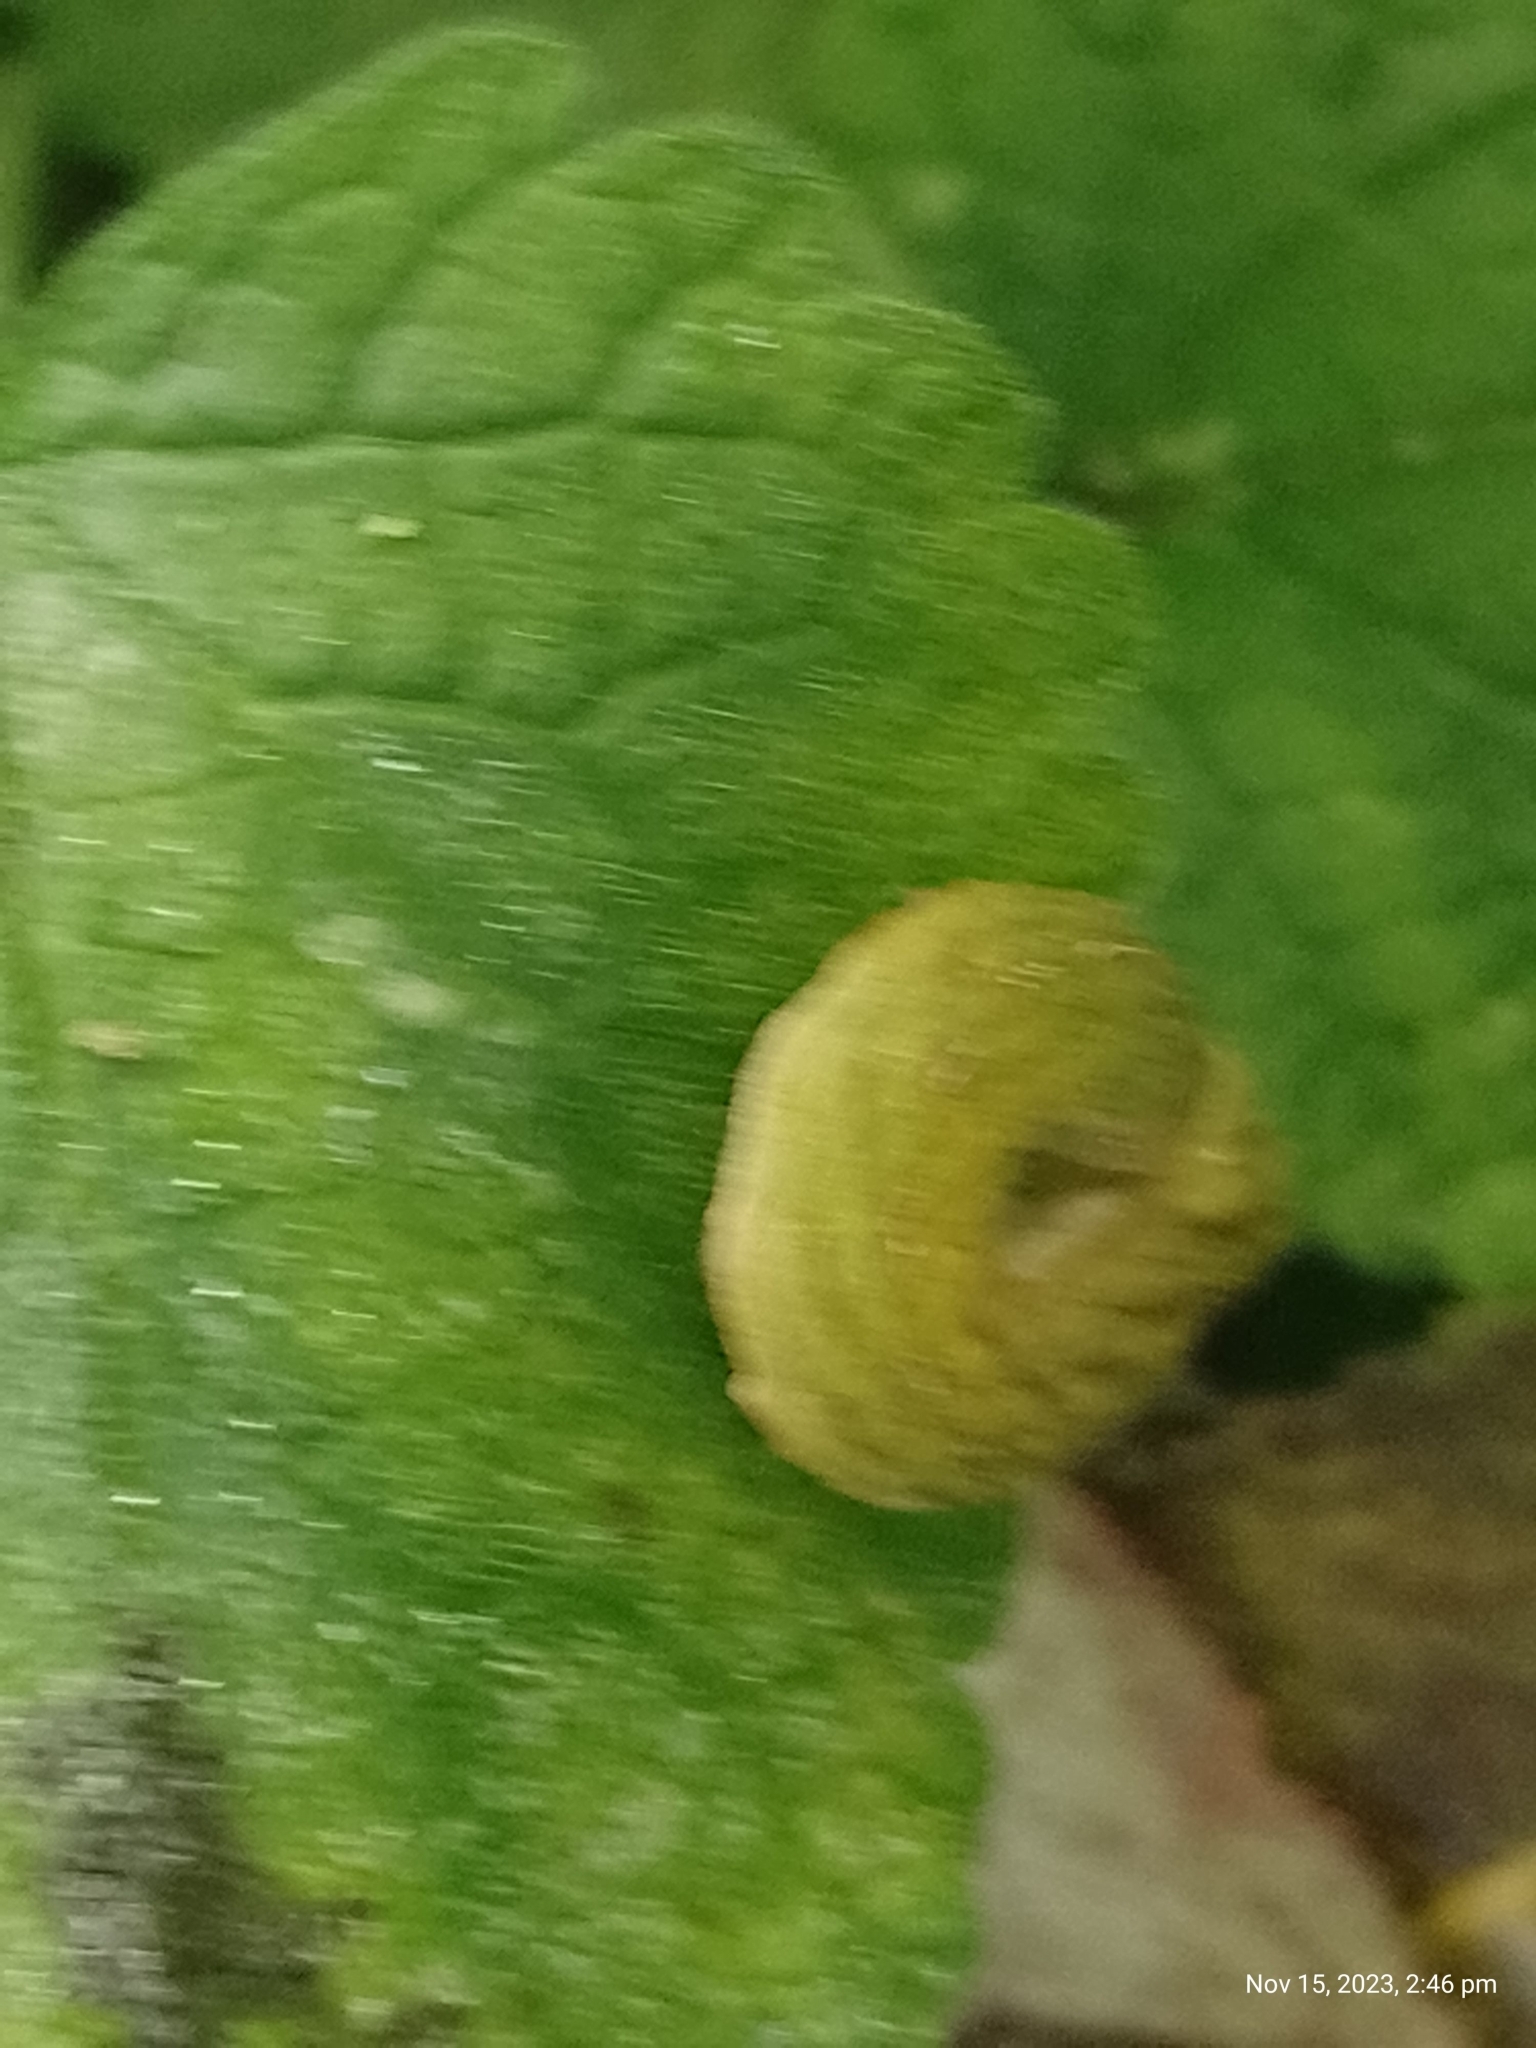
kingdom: Animalia
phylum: Arthropoda
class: Insecta
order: Lepidoptera
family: Noctuidae
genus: Phlogophora
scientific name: Phlogophora meticulosa
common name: Angle shades
